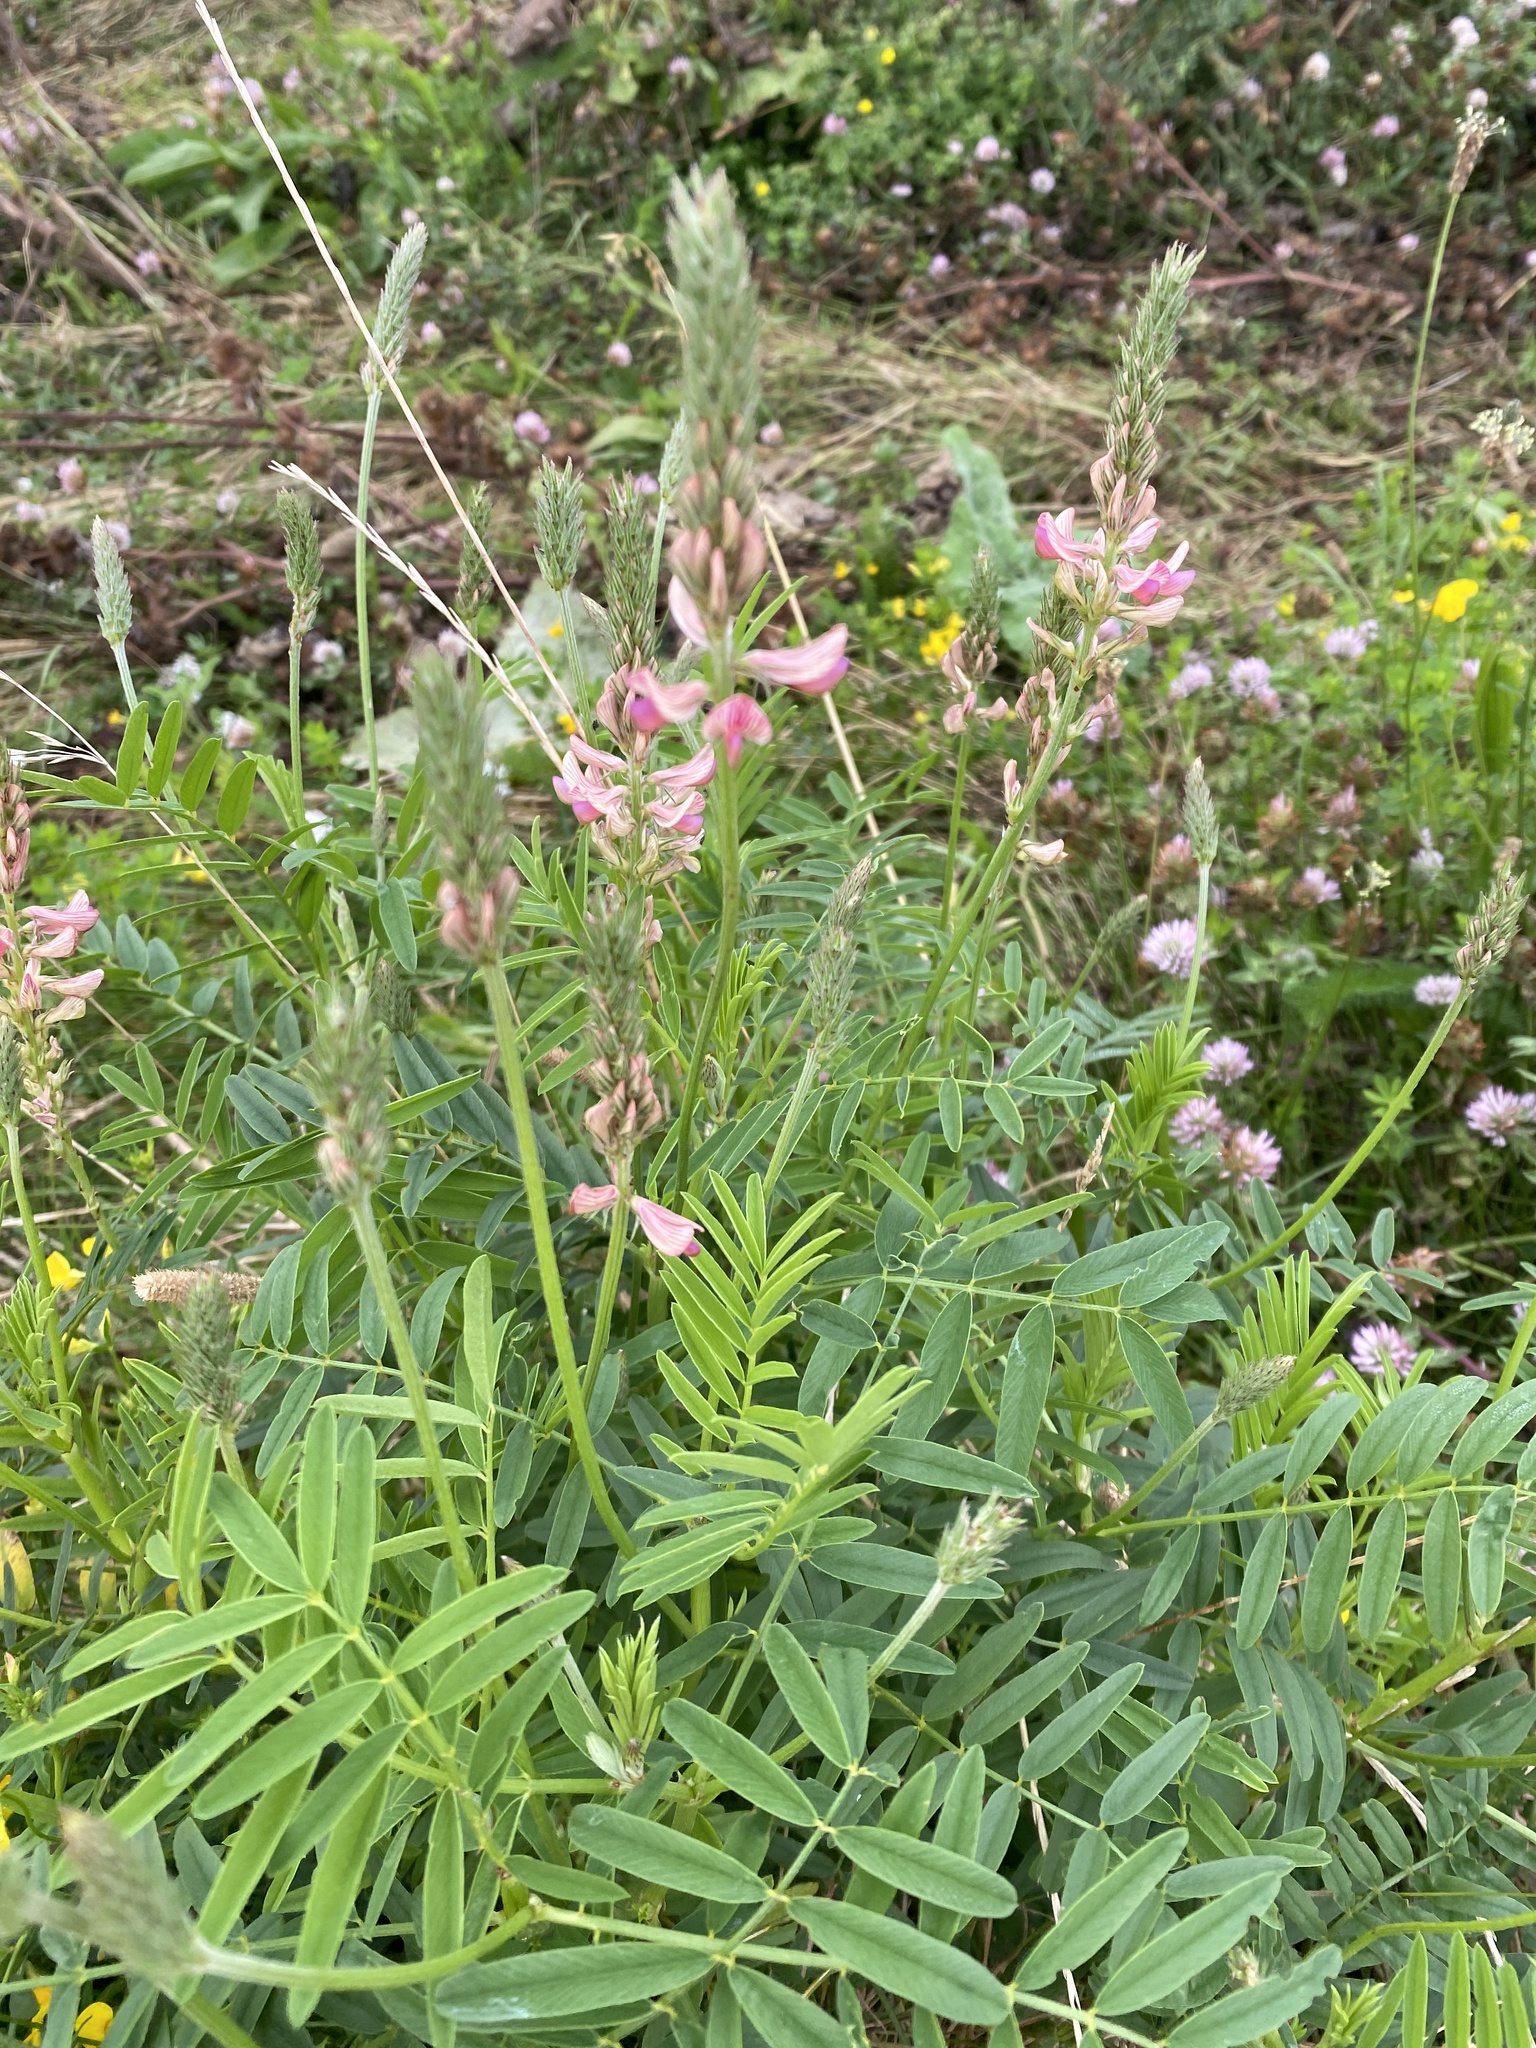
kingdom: Plantae
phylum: Tracheophyta
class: Magnoliopsida
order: Fabales
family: Fabaceae
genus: Onobrychis
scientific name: Onobrychis viciifolia
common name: Sainfoin
